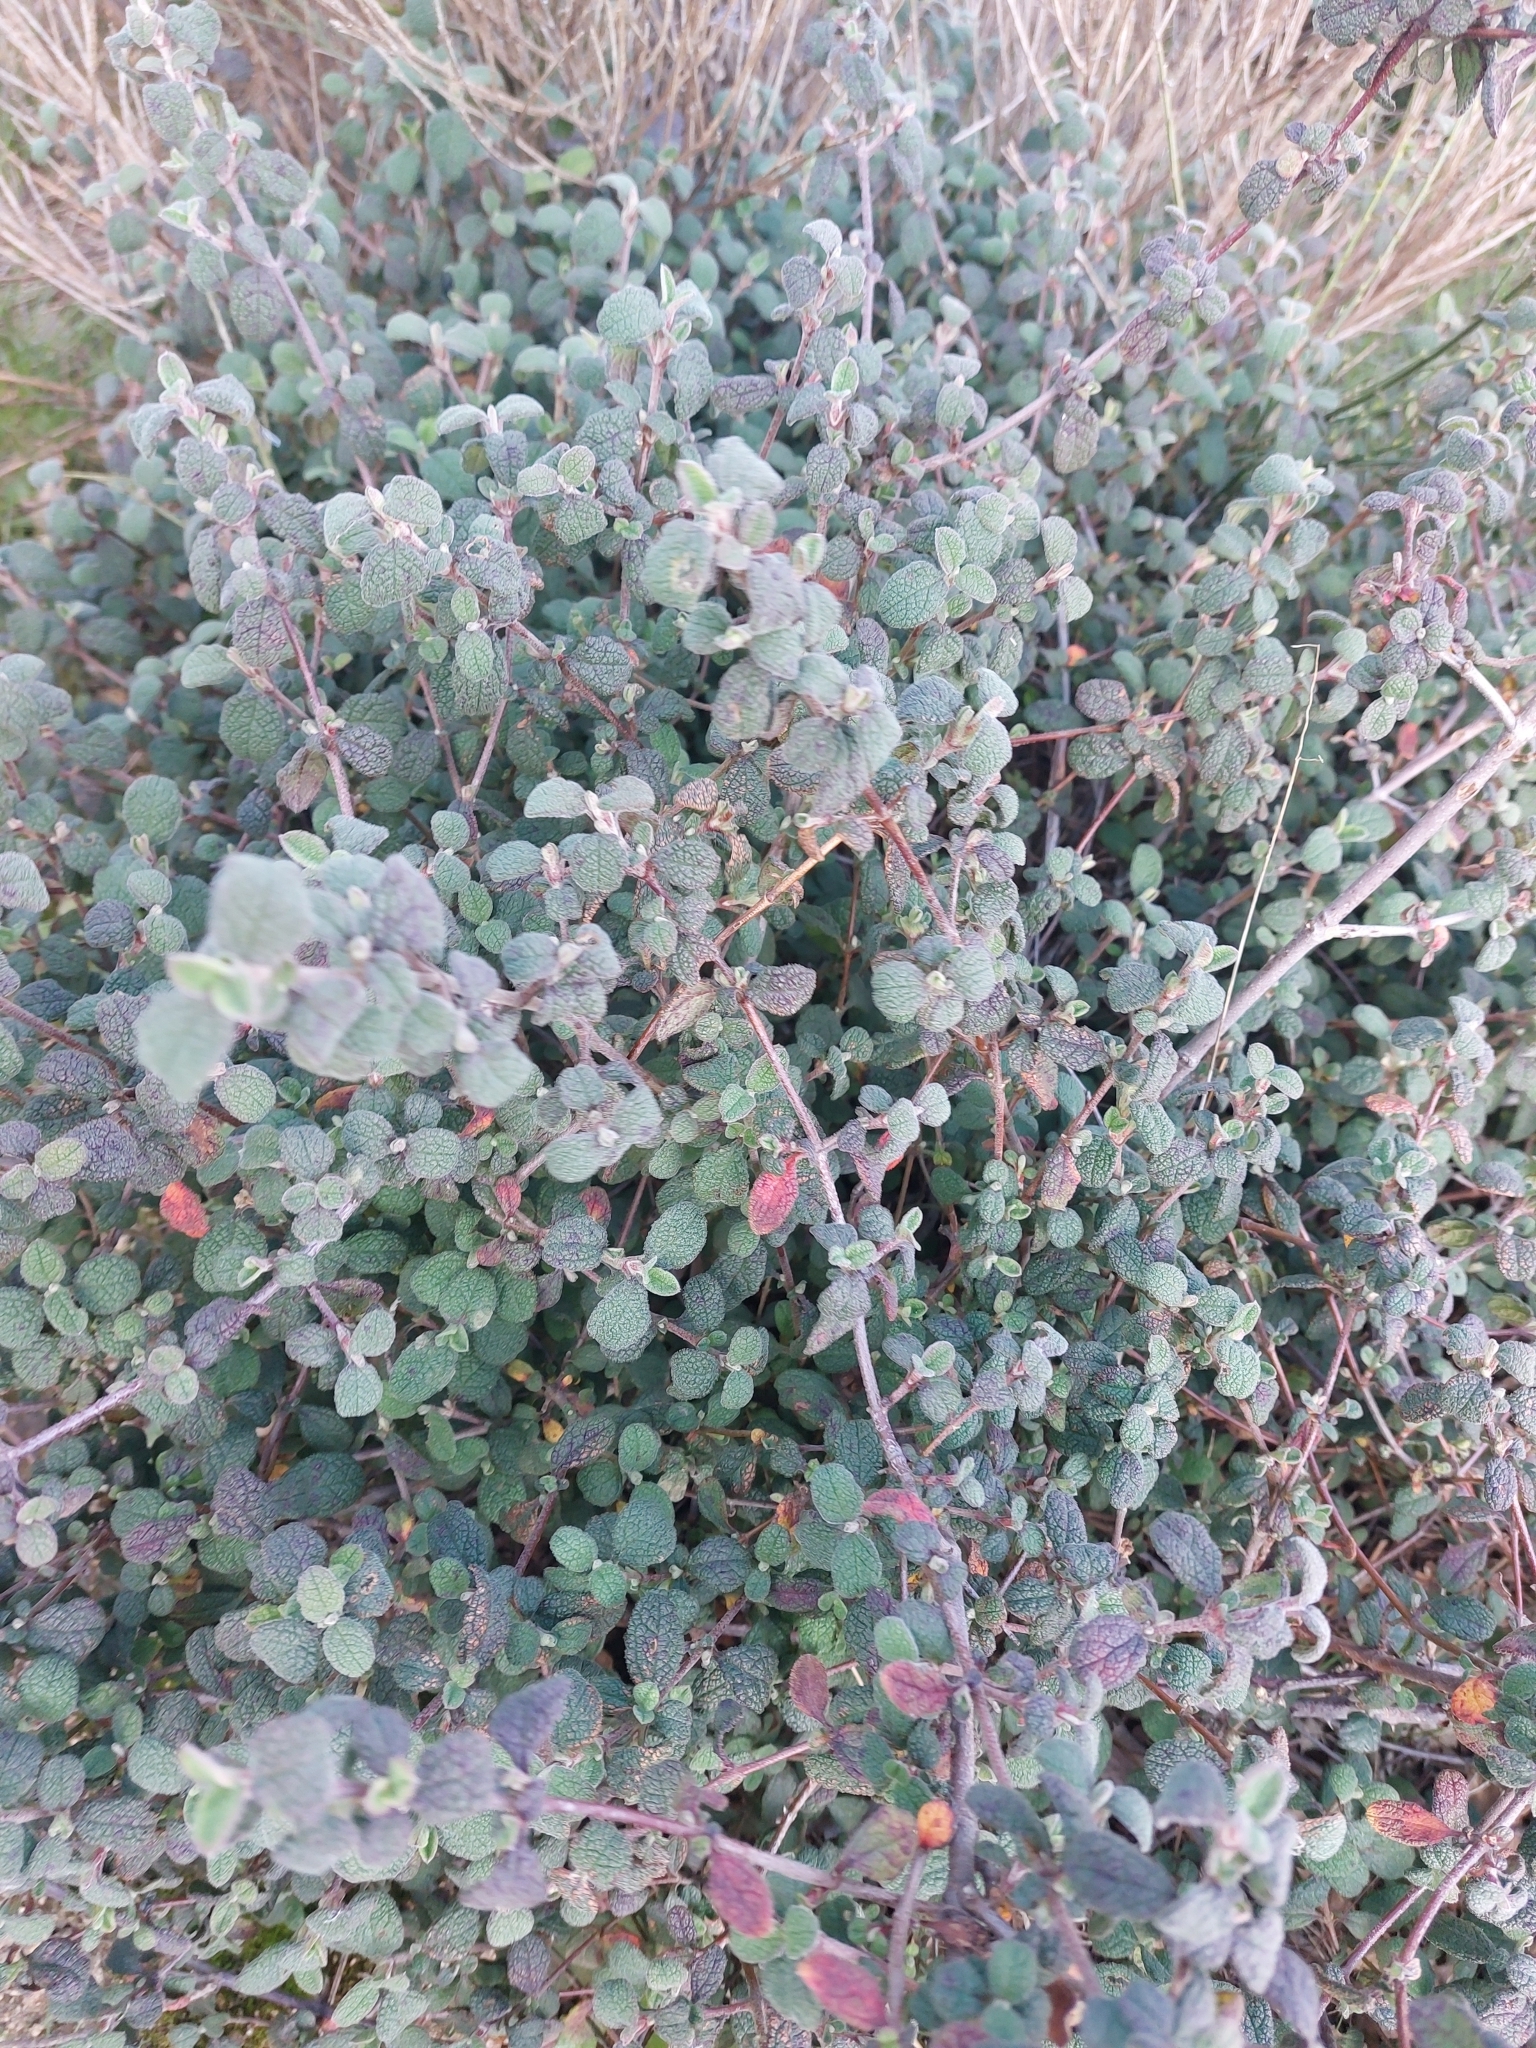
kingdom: Plantae
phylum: Tracheophyta
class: Magnoliopsida
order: Malvales
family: Cistaceae
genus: Cistus
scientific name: Cistus salviifolius
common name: Salvia cistus
